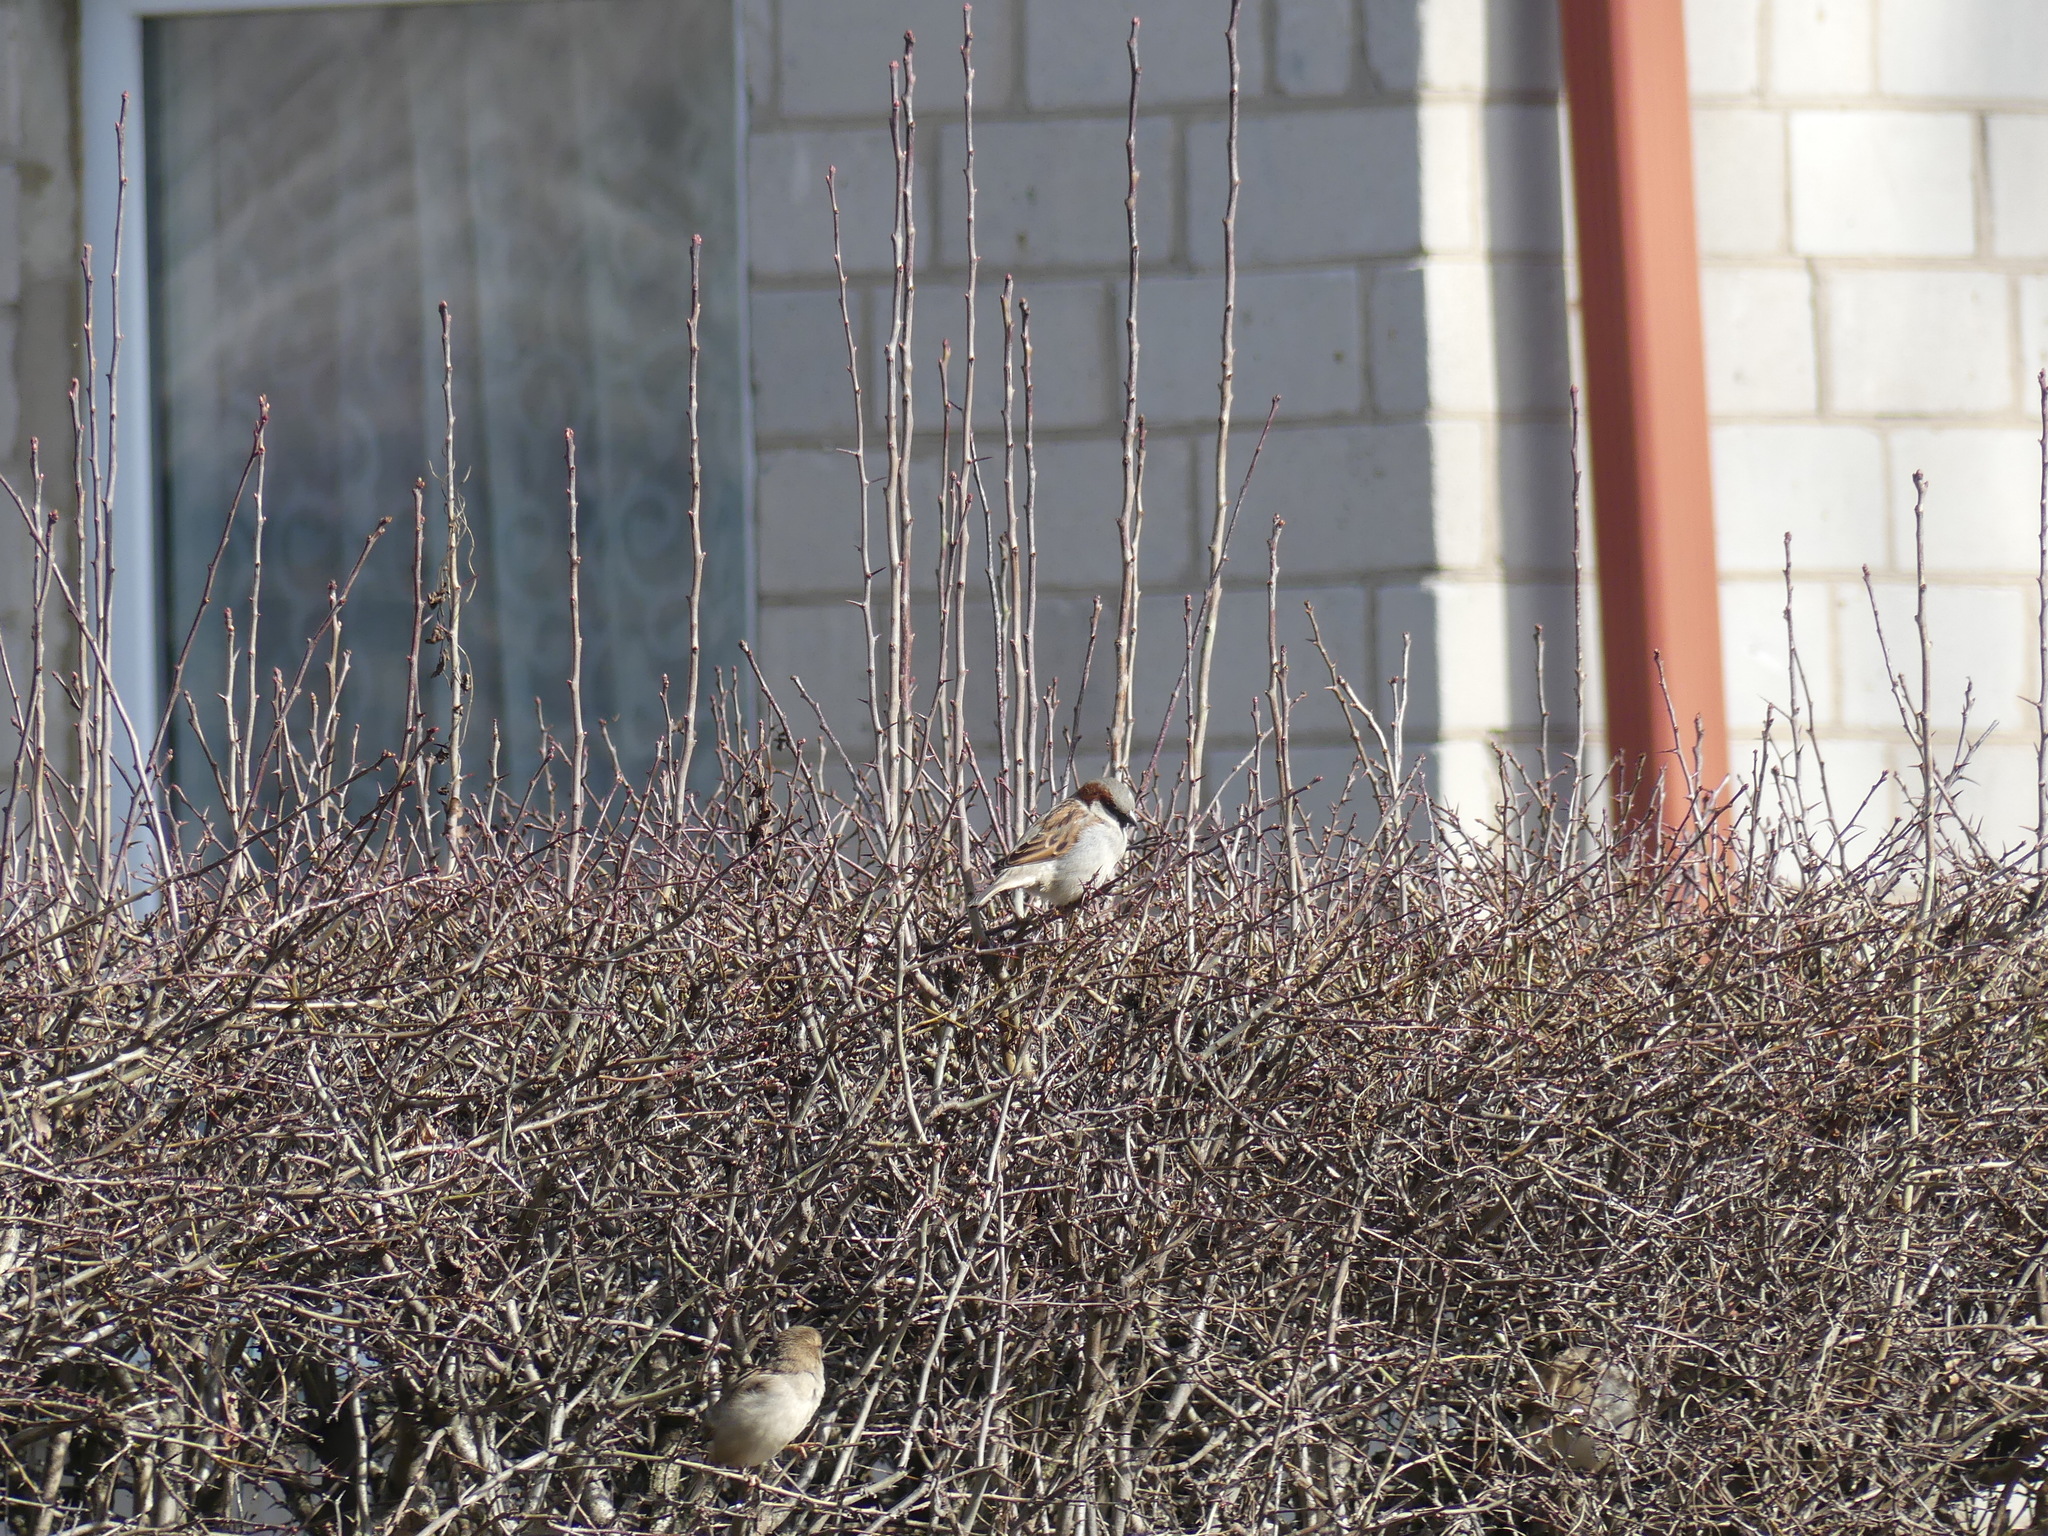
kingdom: Animalia
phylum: Chordata
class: Aves
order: Passeriformes
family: Passeridae
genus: Passer
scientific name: Passer domesticus
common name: House sparrow
